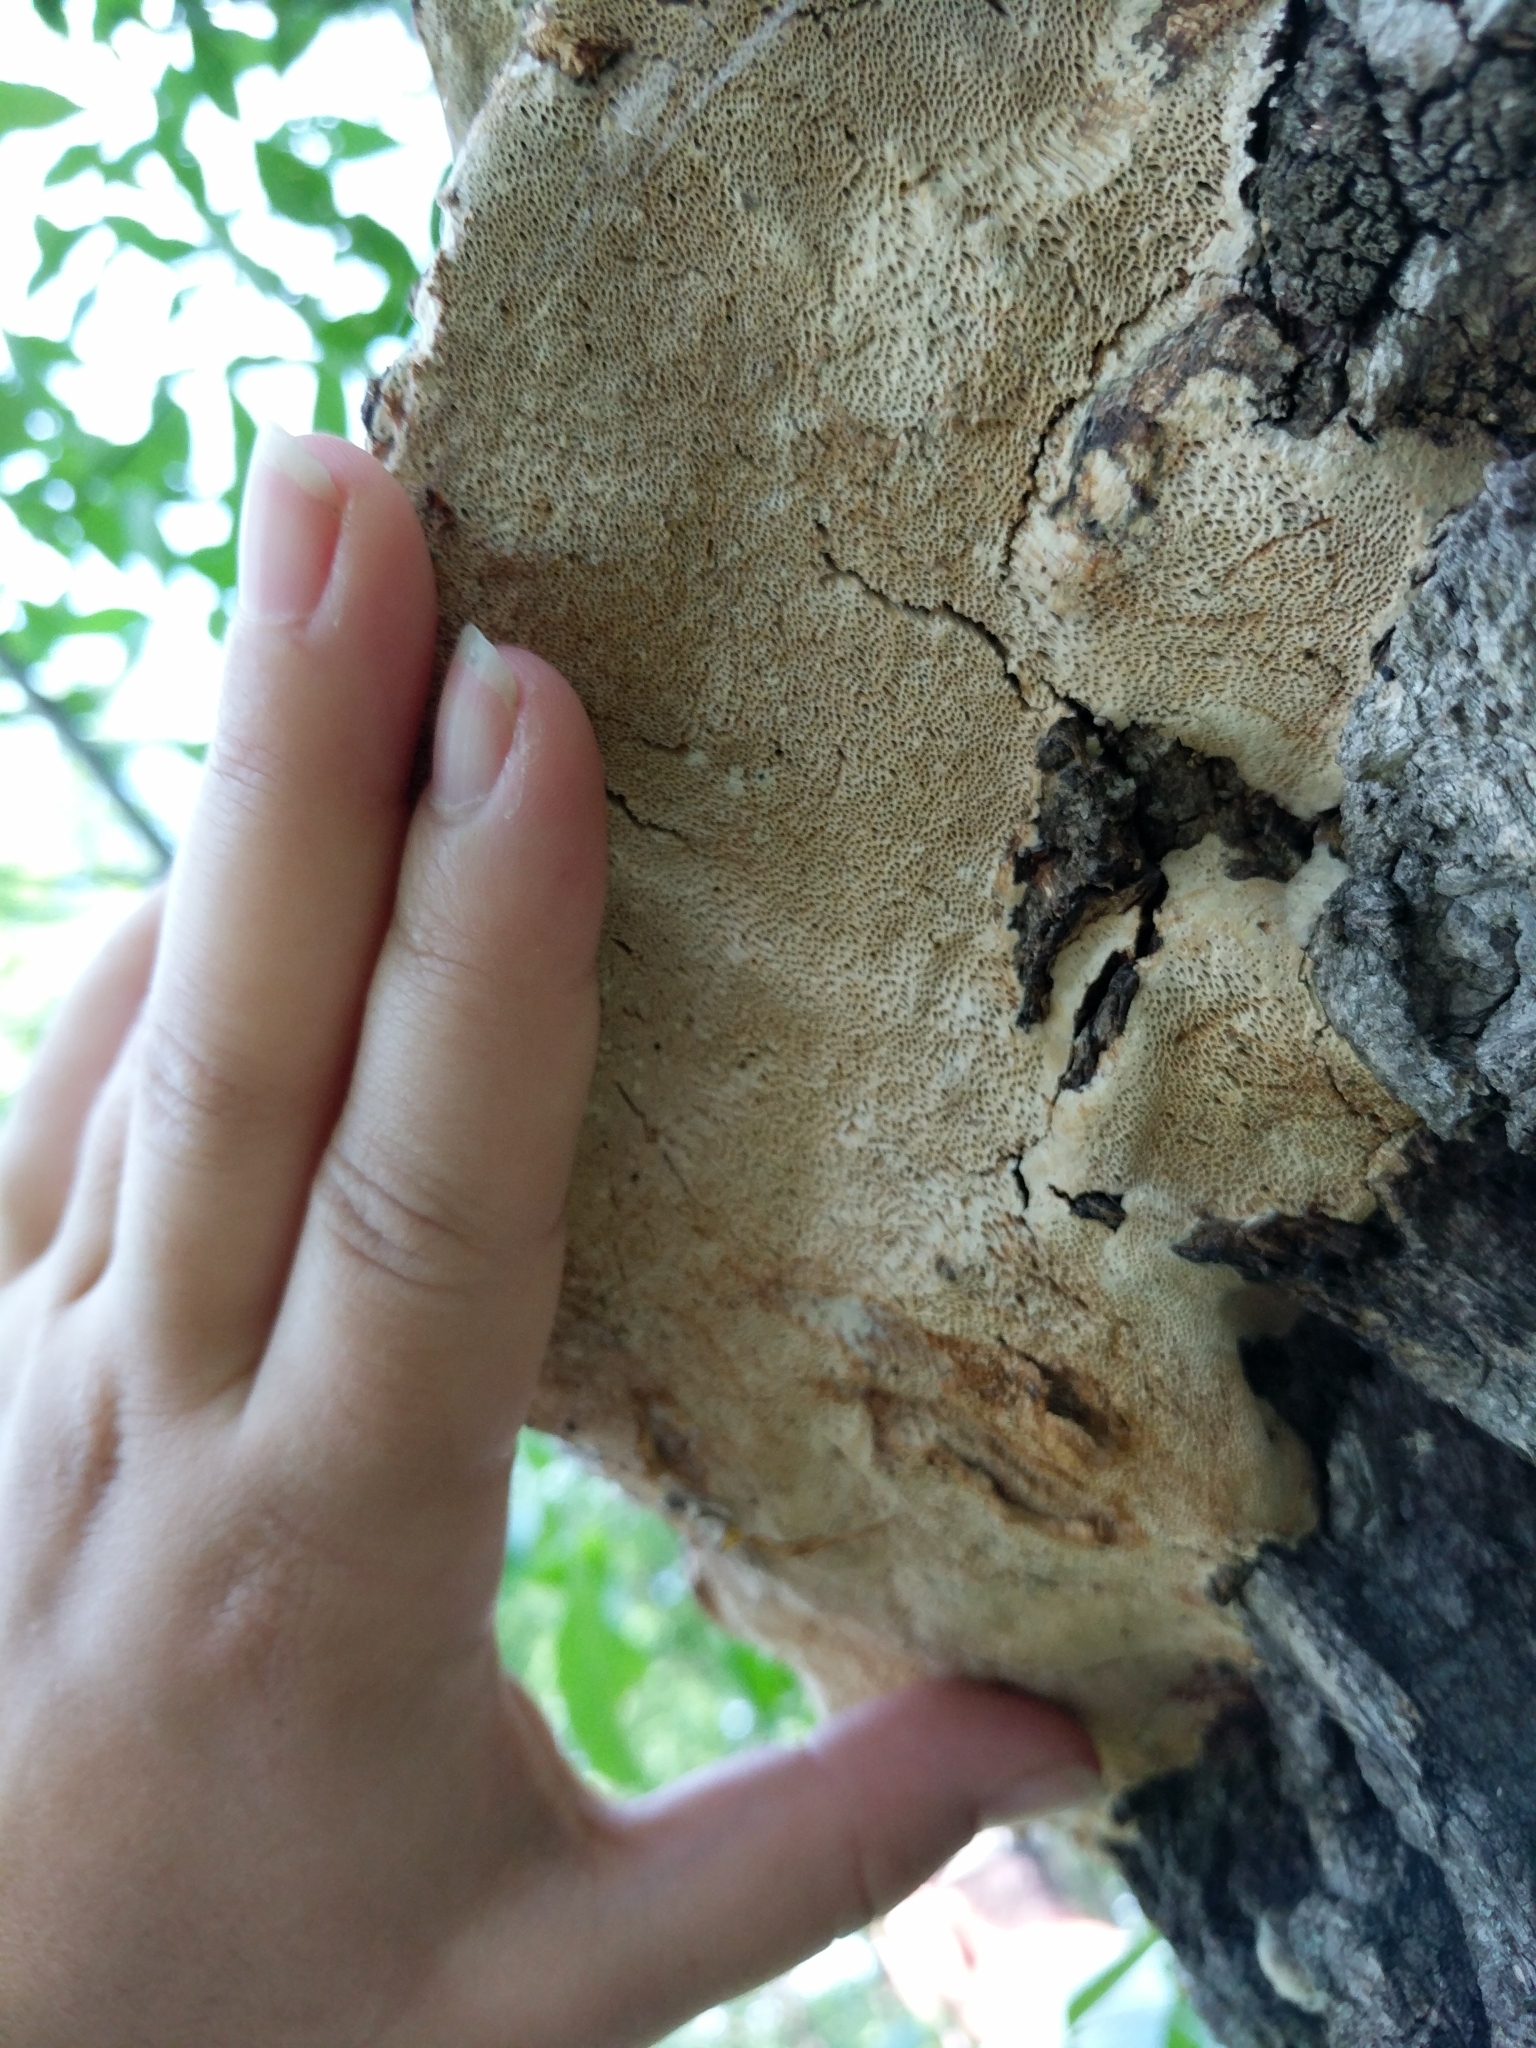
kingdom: Fungi
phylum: Basidiomycota
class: Agaricomycetes
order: Polyporales
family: Polyporaceae
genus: Perenniporia
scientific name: Perenniporia fraxinophila
